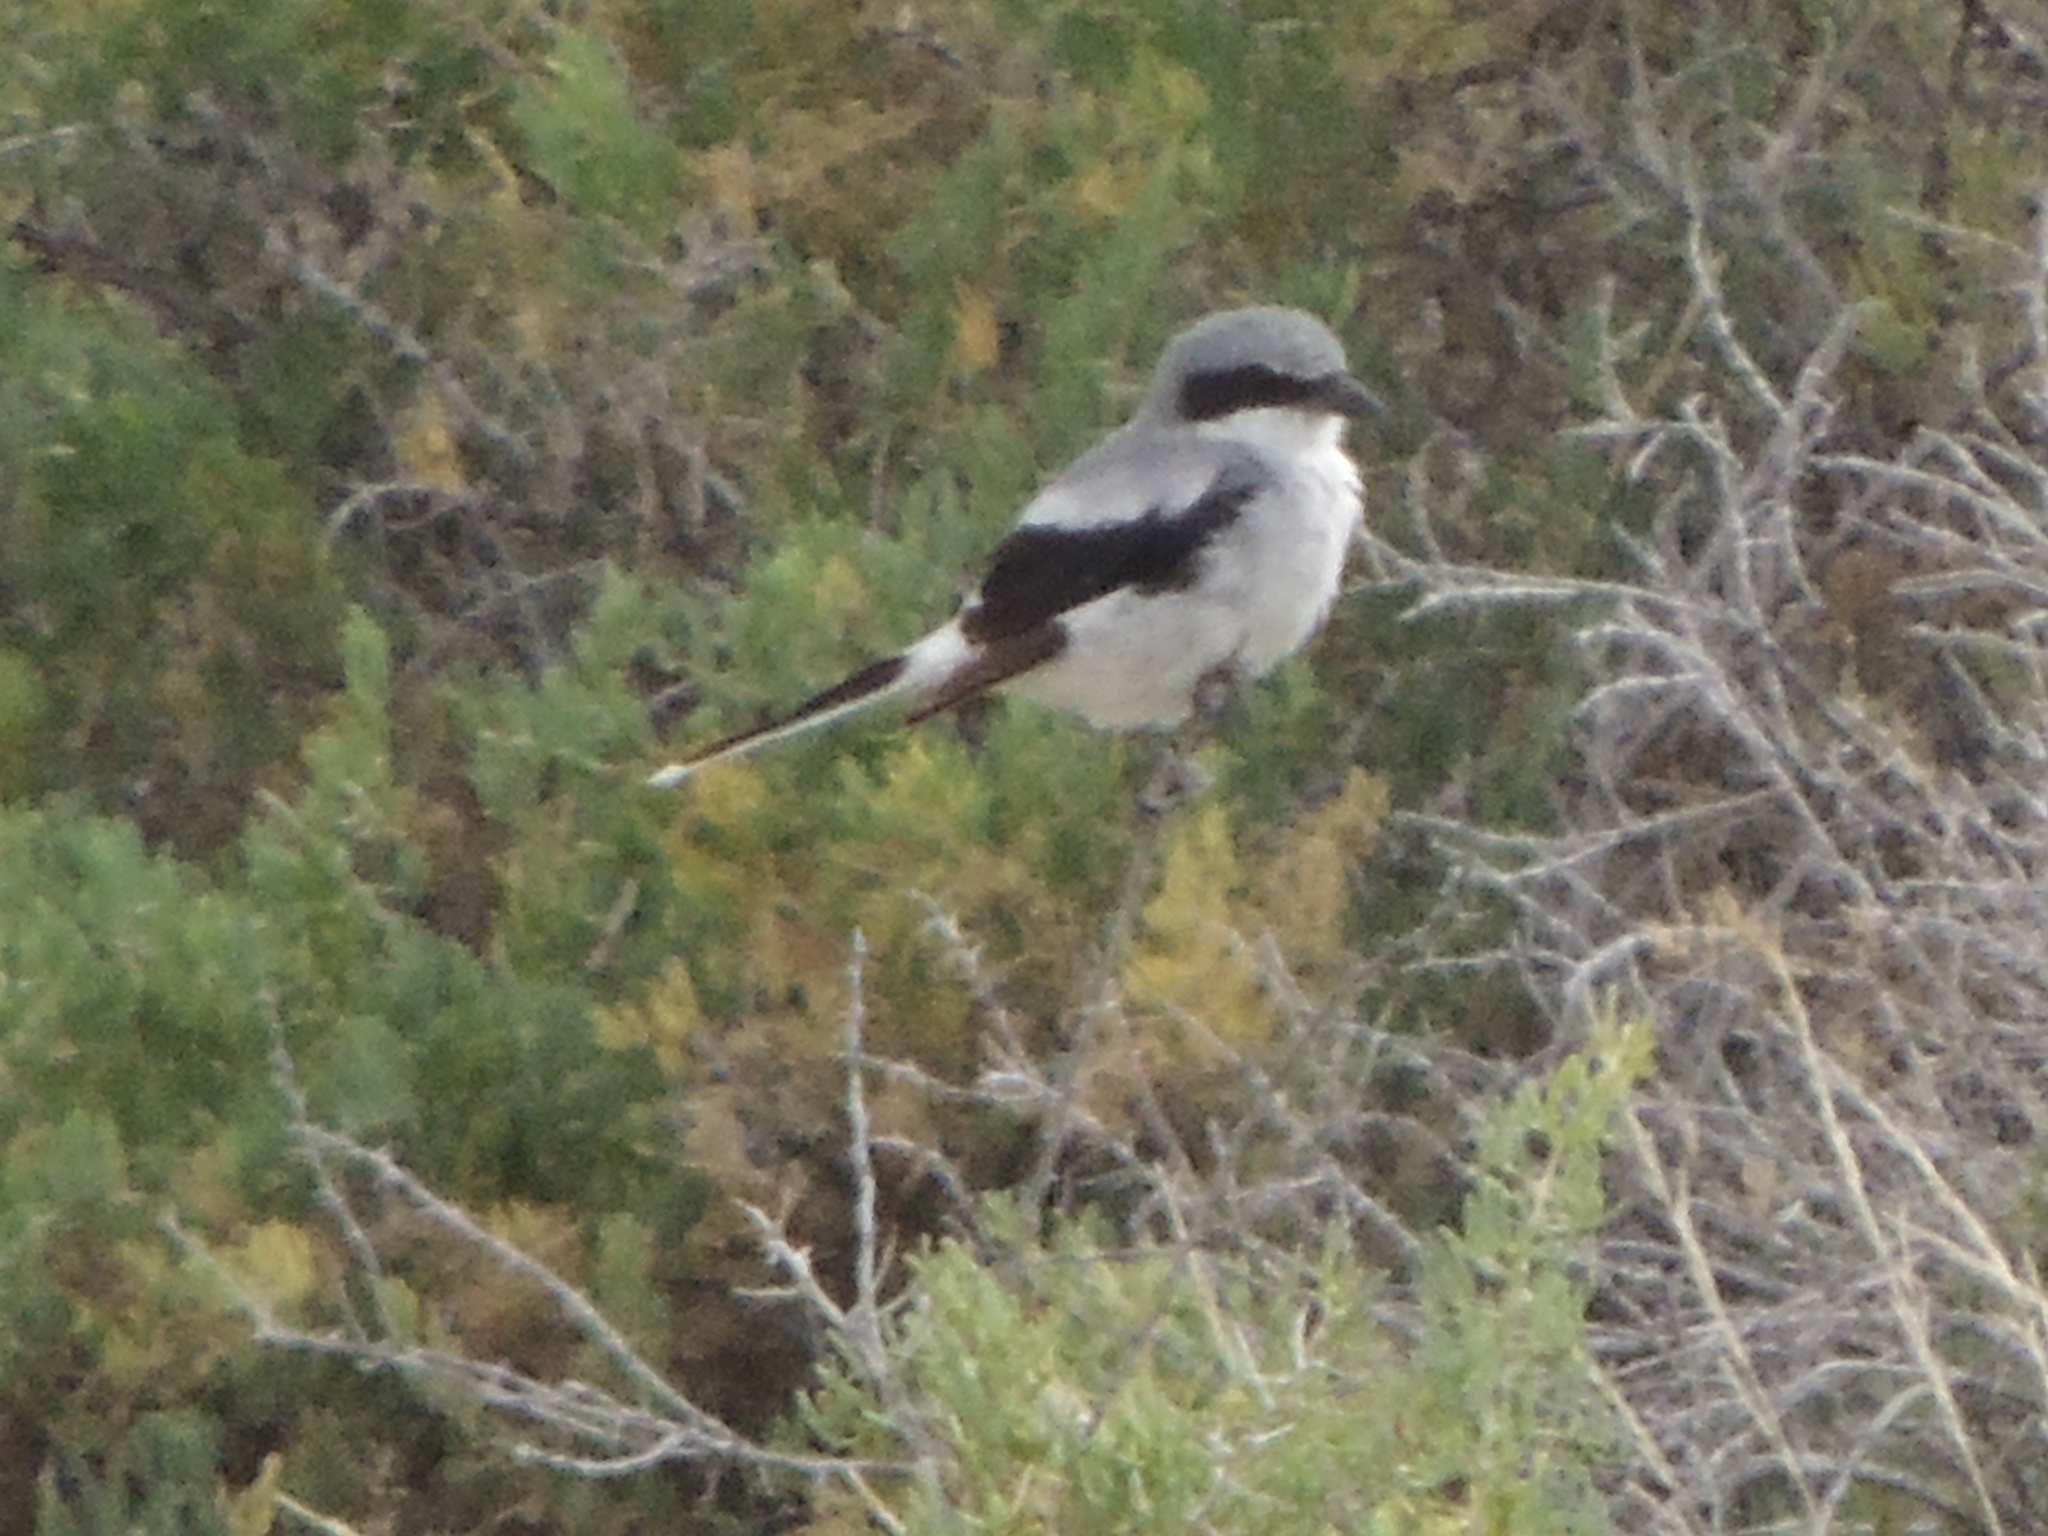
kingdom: Animalia
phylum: Chordata
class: Aves
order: Passeriformes
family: Laniidae
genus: Lanius
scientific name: Lanius ludovicianus
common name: Loggerhead shrike
